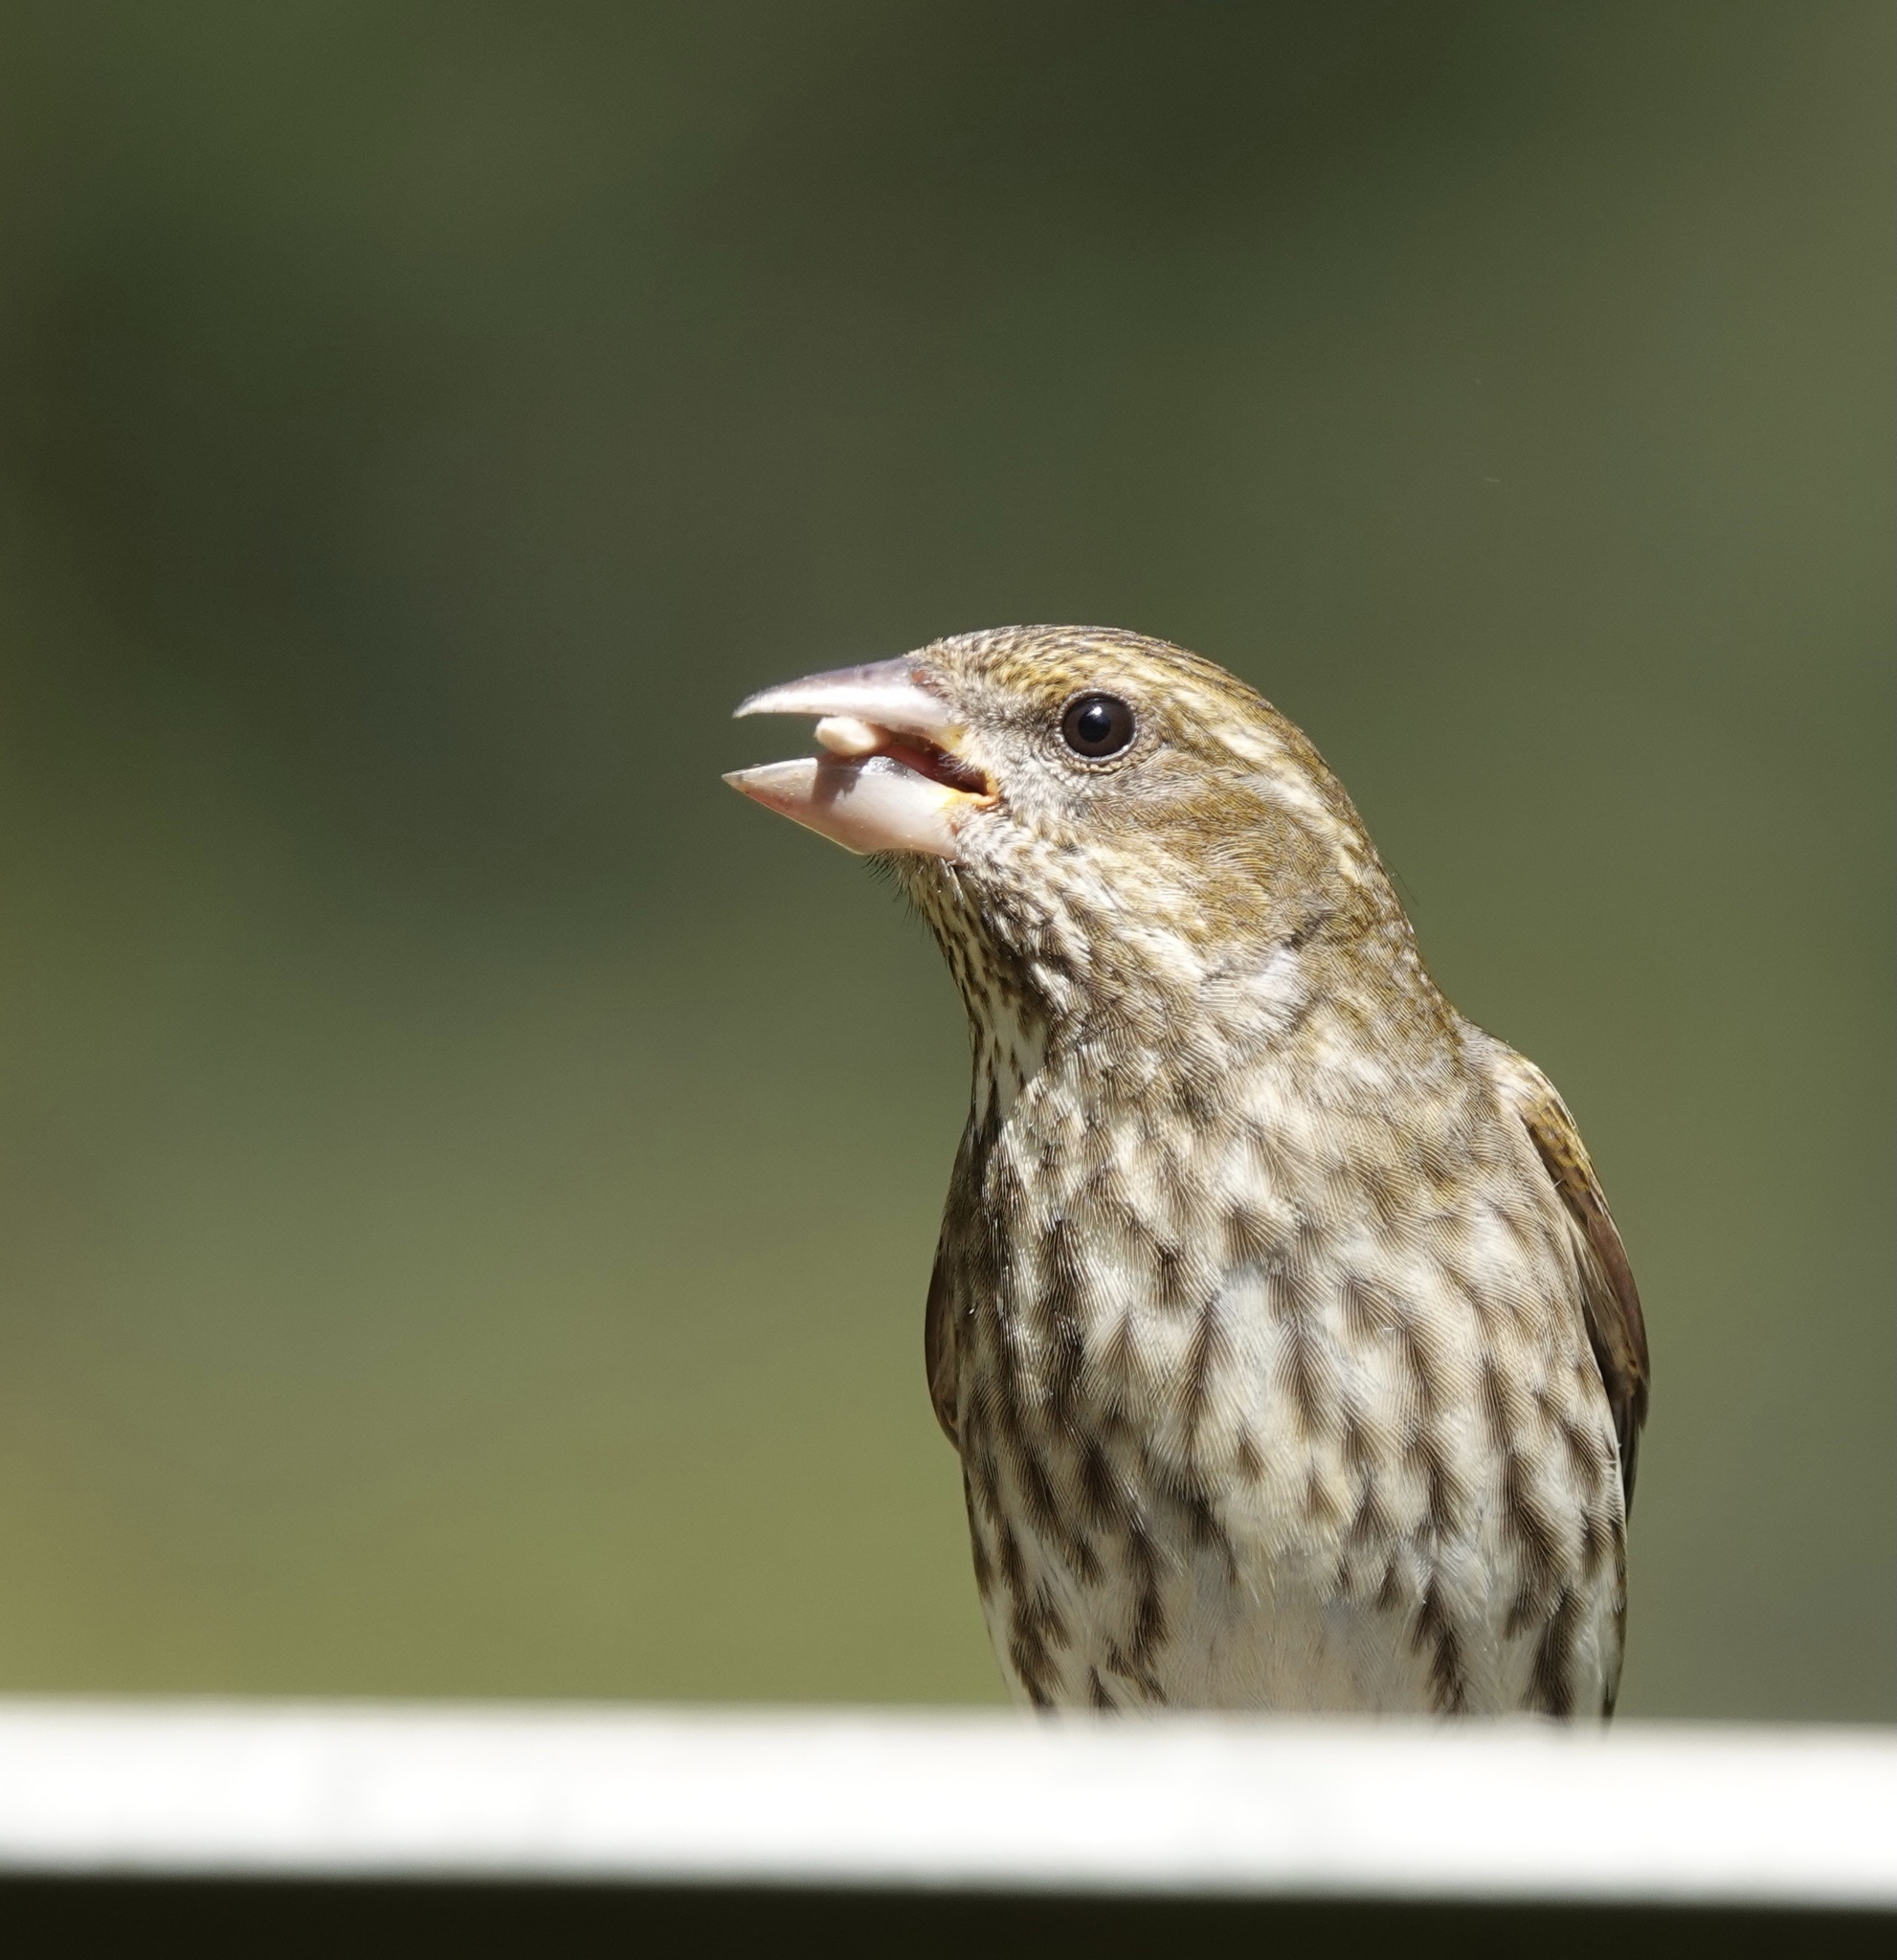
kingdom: Animalia
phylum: Chordata
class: Aves
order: Passeriformes
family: Fringillidae
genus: Haemorhous
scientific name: Haemorhous purpureus
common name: Purple finch
